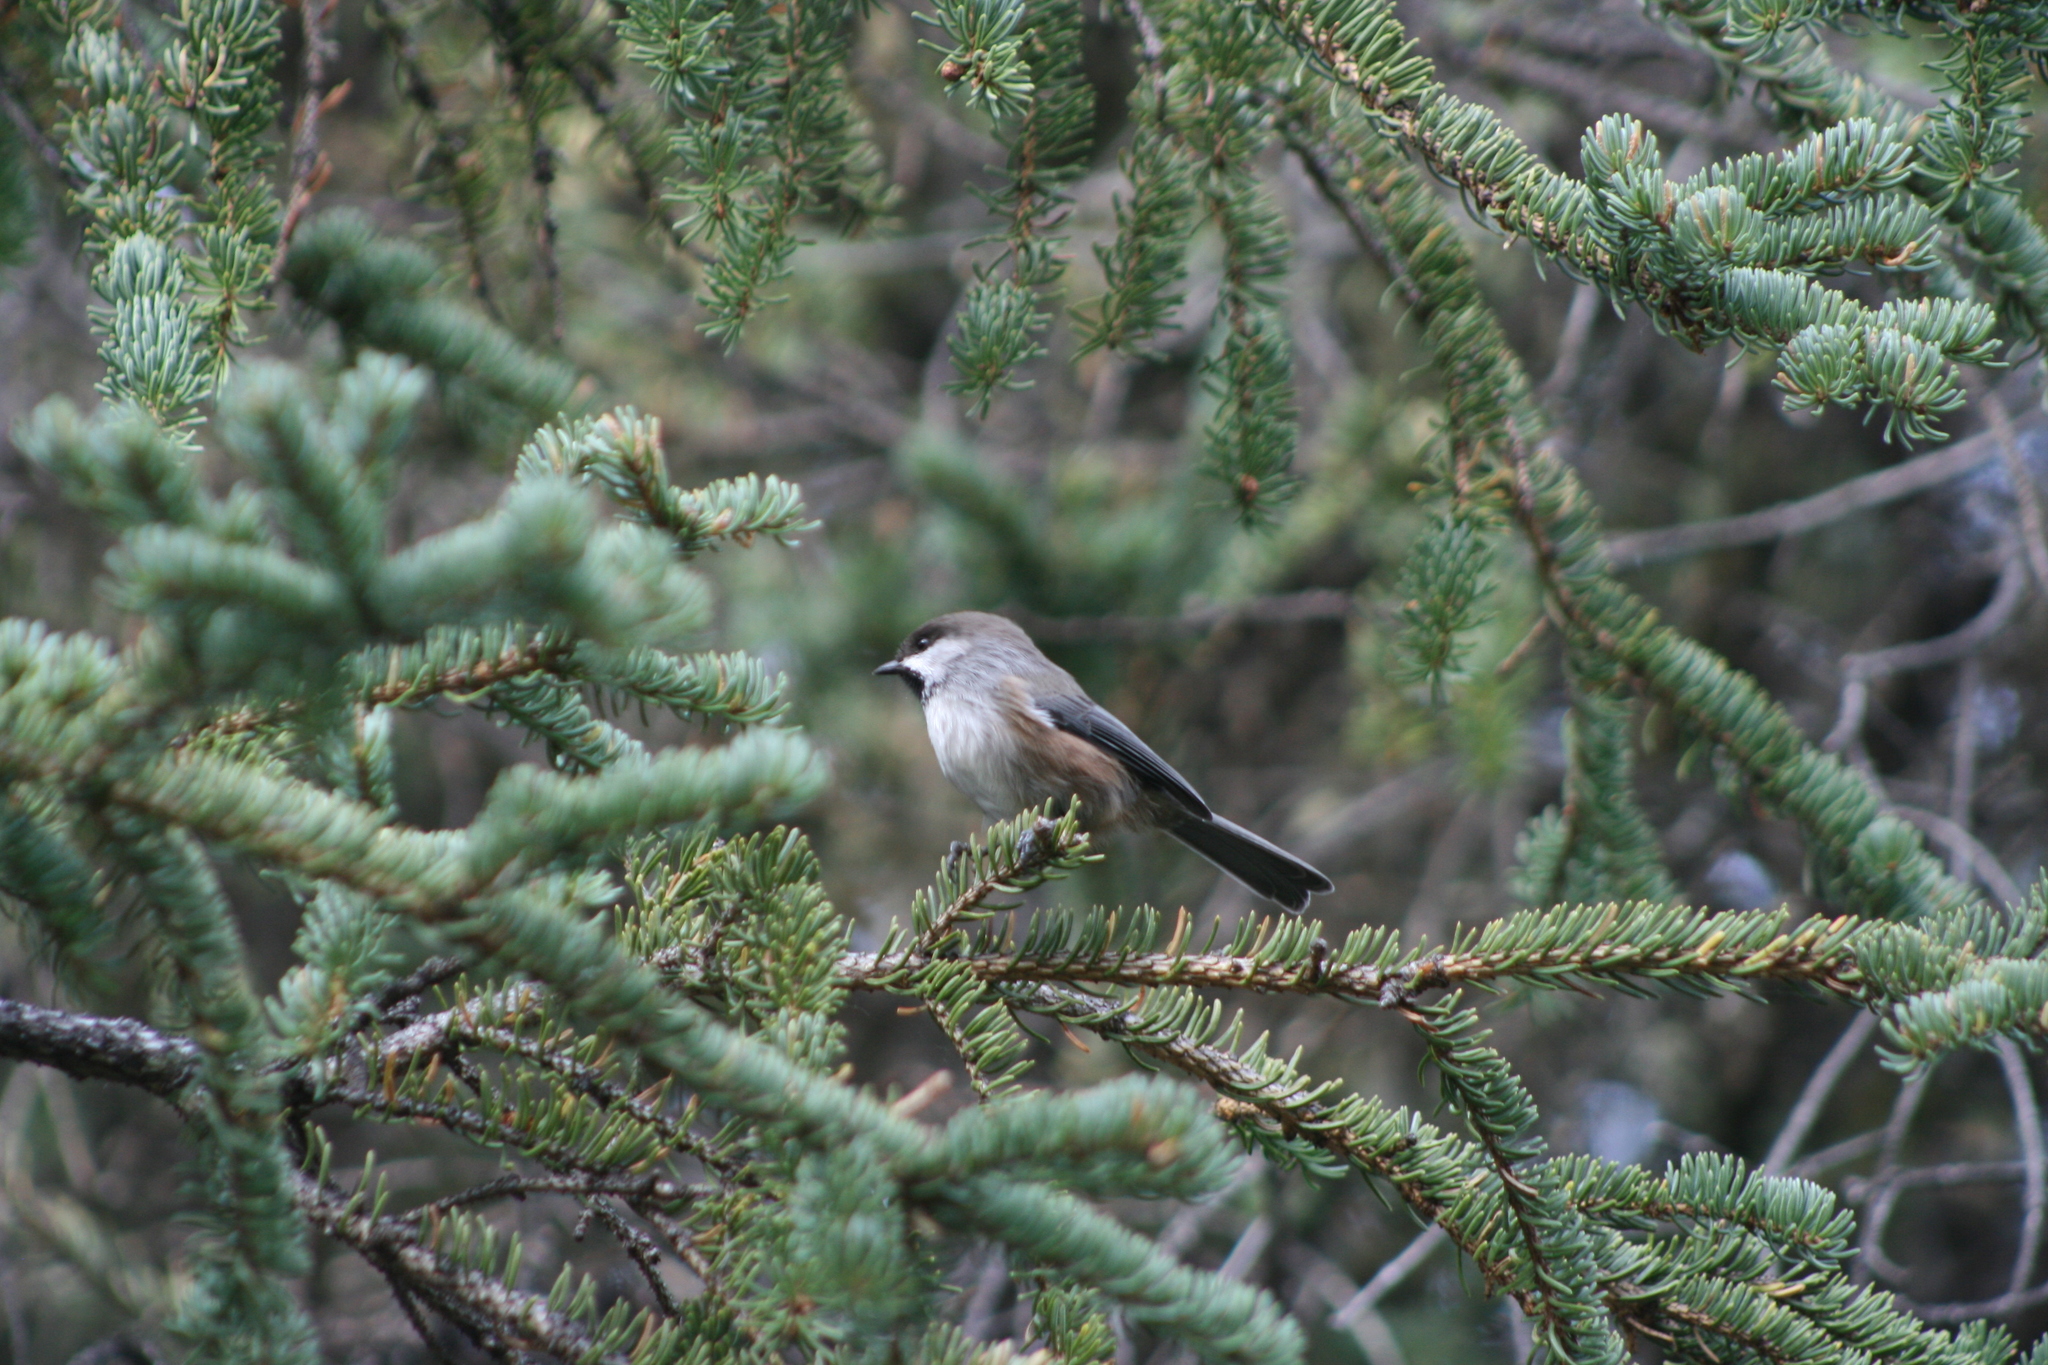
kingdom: Animalia
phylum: Chordata
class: Aves
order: Passeriformes
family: Paridae
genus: Poecile
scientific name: Poecile hudsonicus
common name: Boreal chickadee
